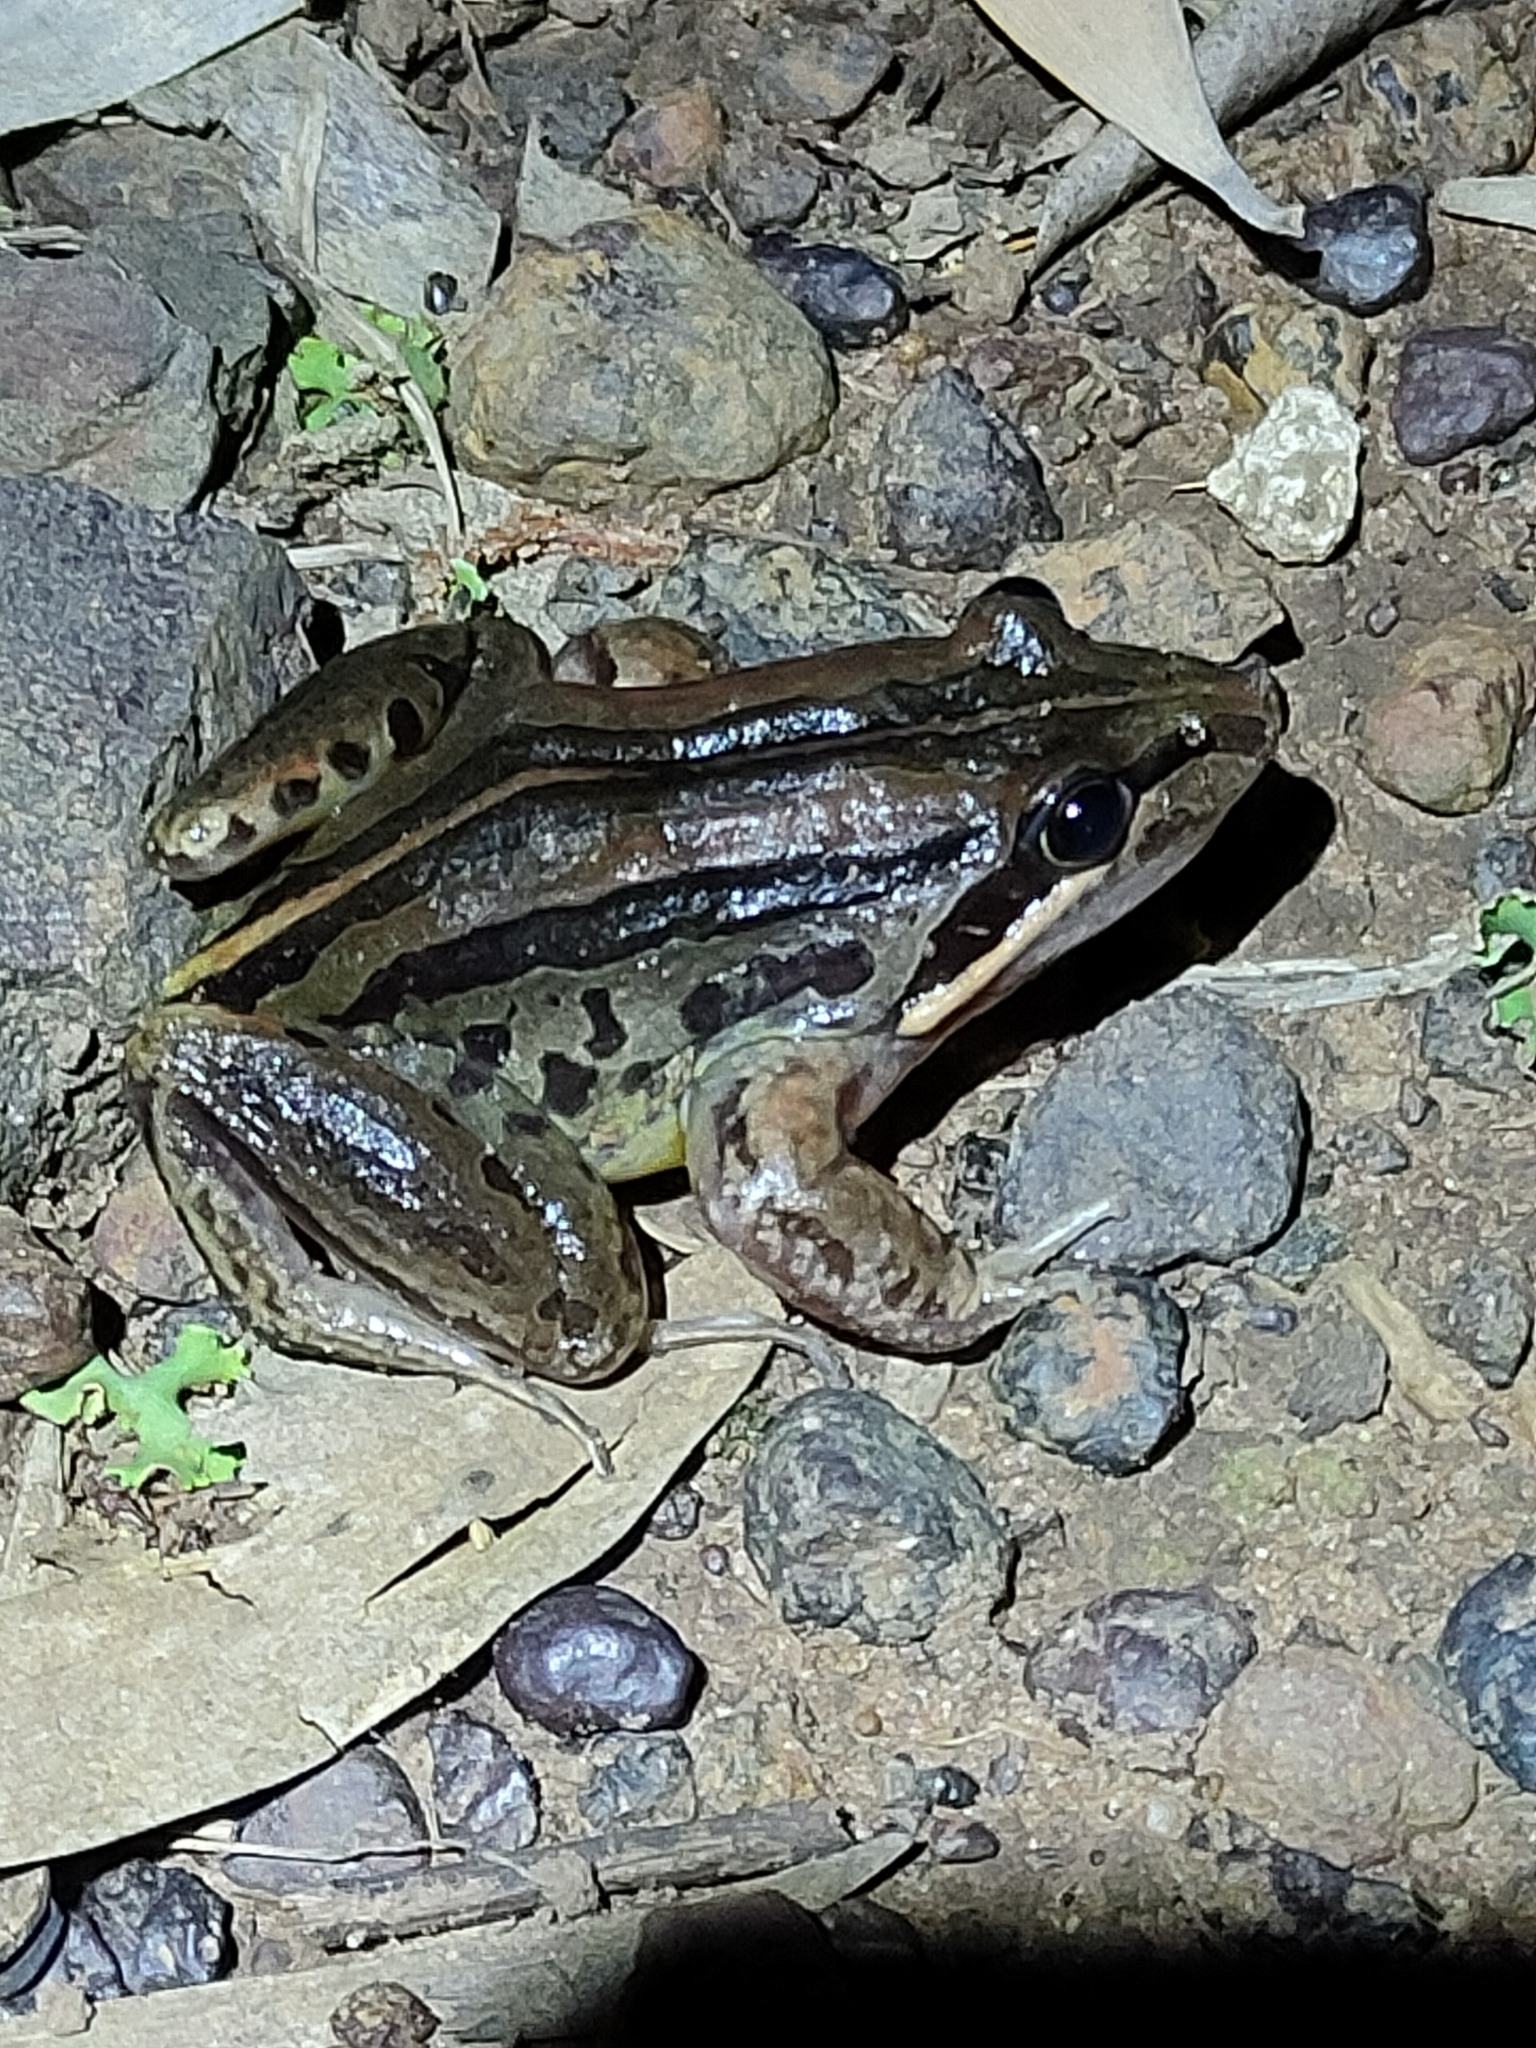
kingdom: Animalia
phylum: Chordata
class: Amphibia
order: Anura
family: Limnodynastidae
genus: Limnodynastes
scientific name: Limnodynastes peronii
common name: Brown frog
